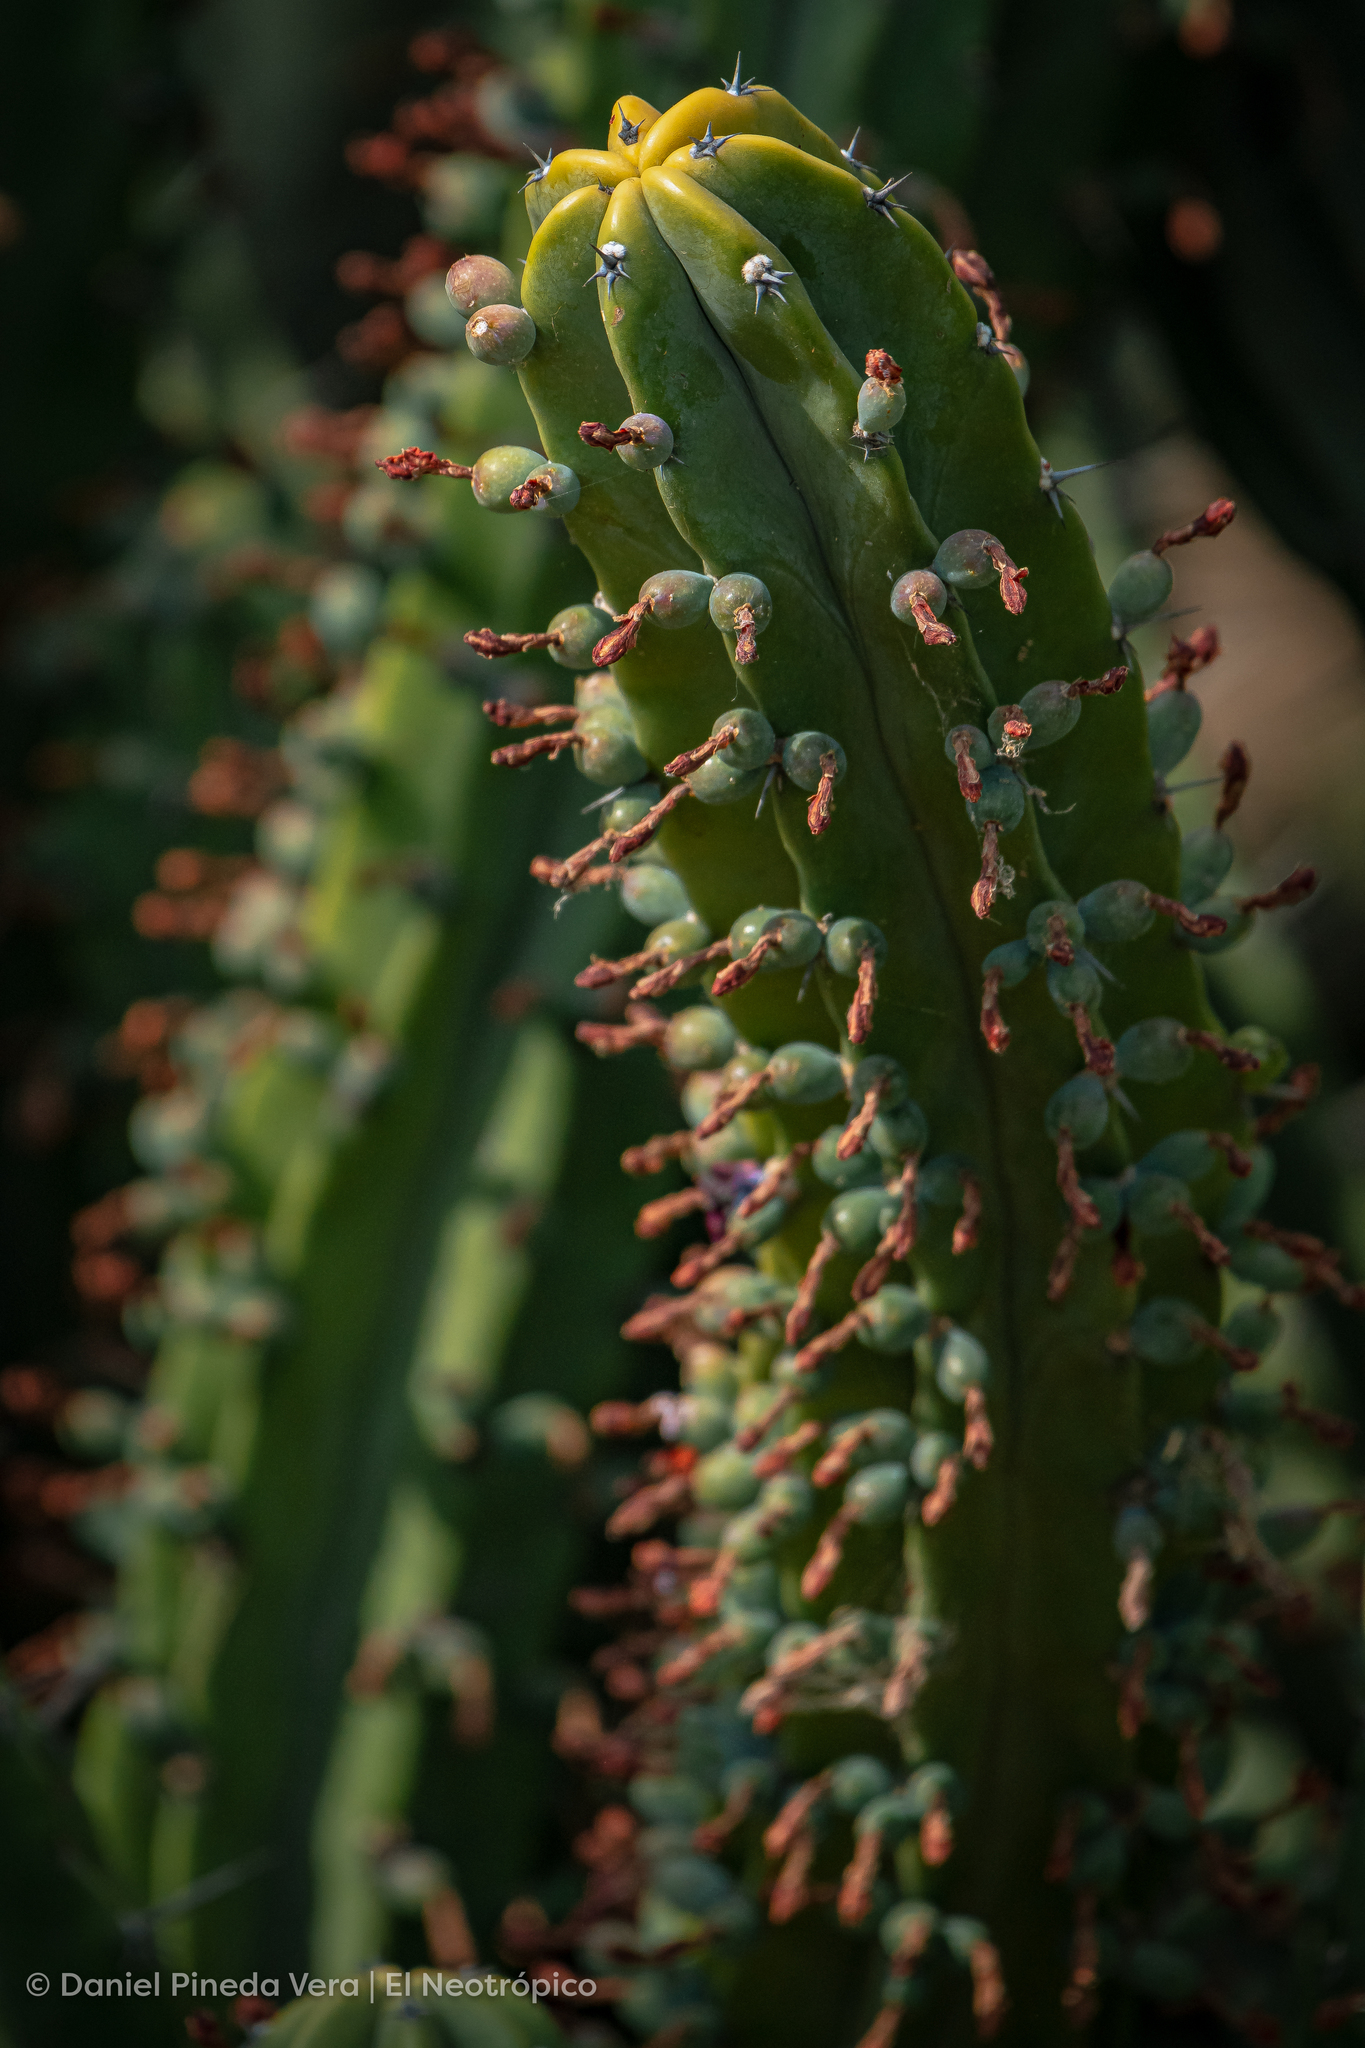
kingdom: Plantae
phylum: Tracheophyta
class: Magnoliopsida
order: Caryophyllales
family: Cactaceae
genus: Myrtillocactus
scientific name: Myrtillocactus geometrizans
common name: Bilberry cactus
